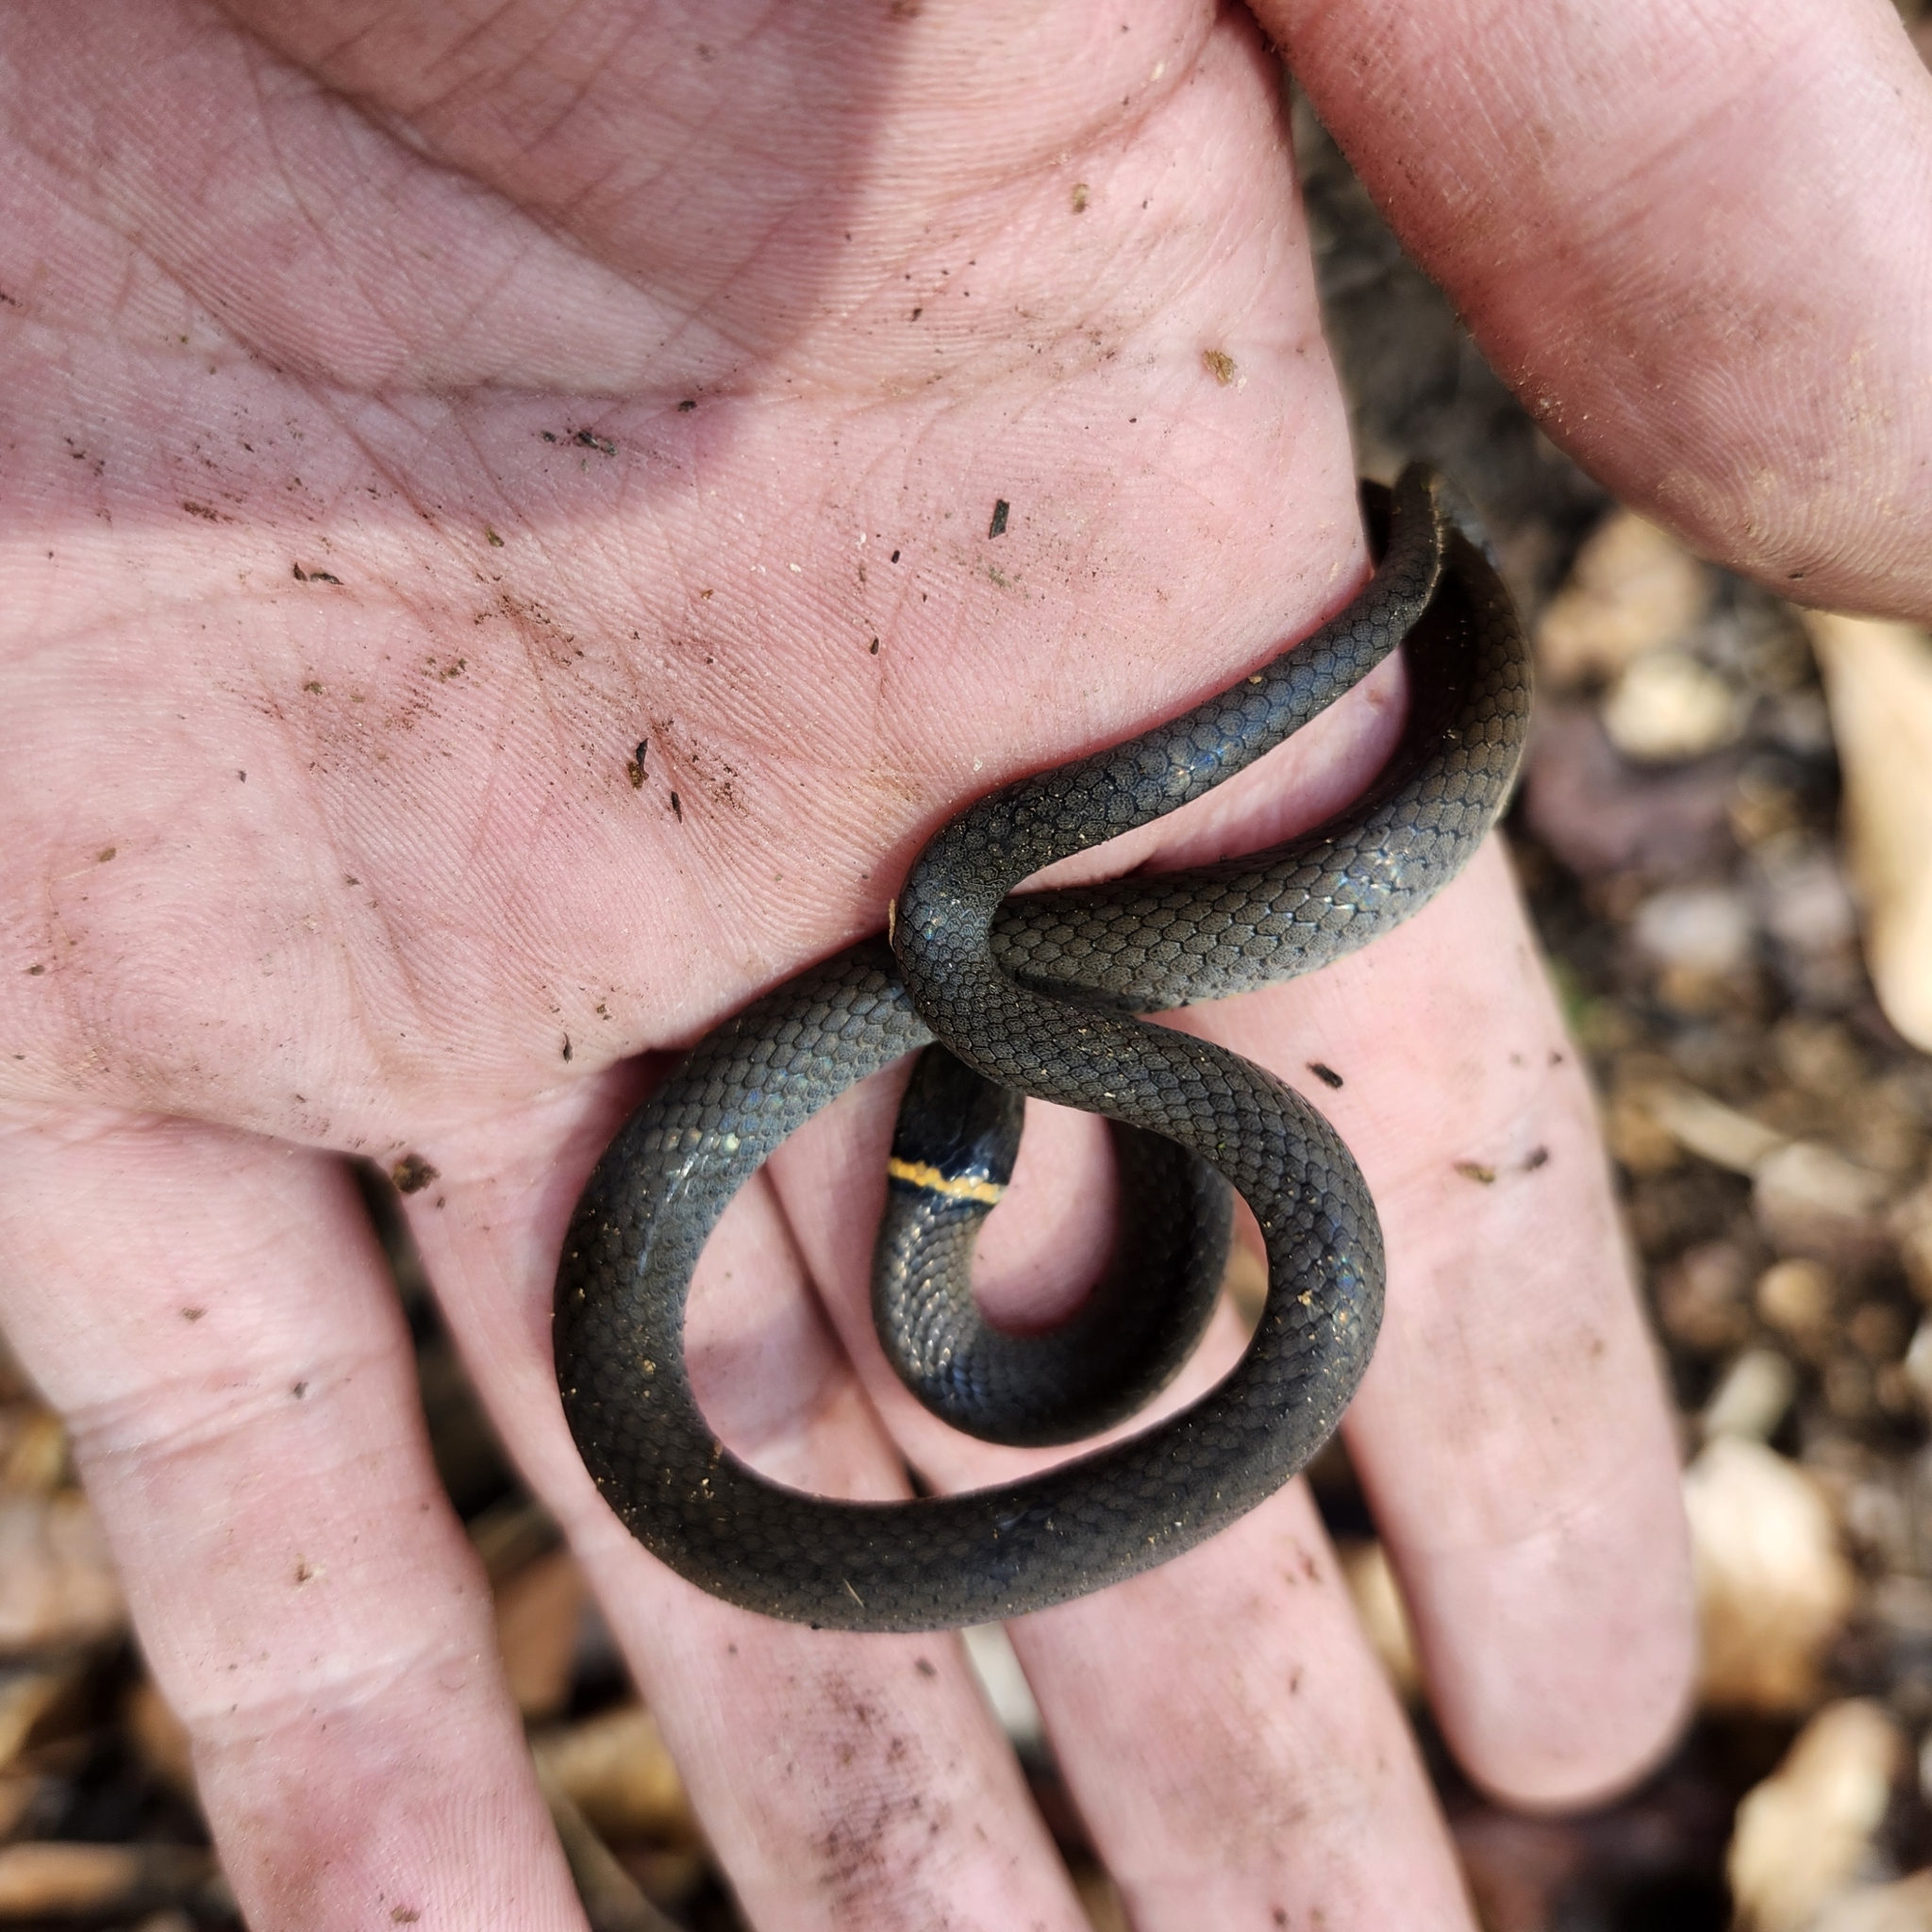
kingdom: Animalia
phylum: Chordata
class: Squamata
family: Colubridae
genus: Diadophis
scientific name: Diadophis punctatus
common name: Ringneck snake
